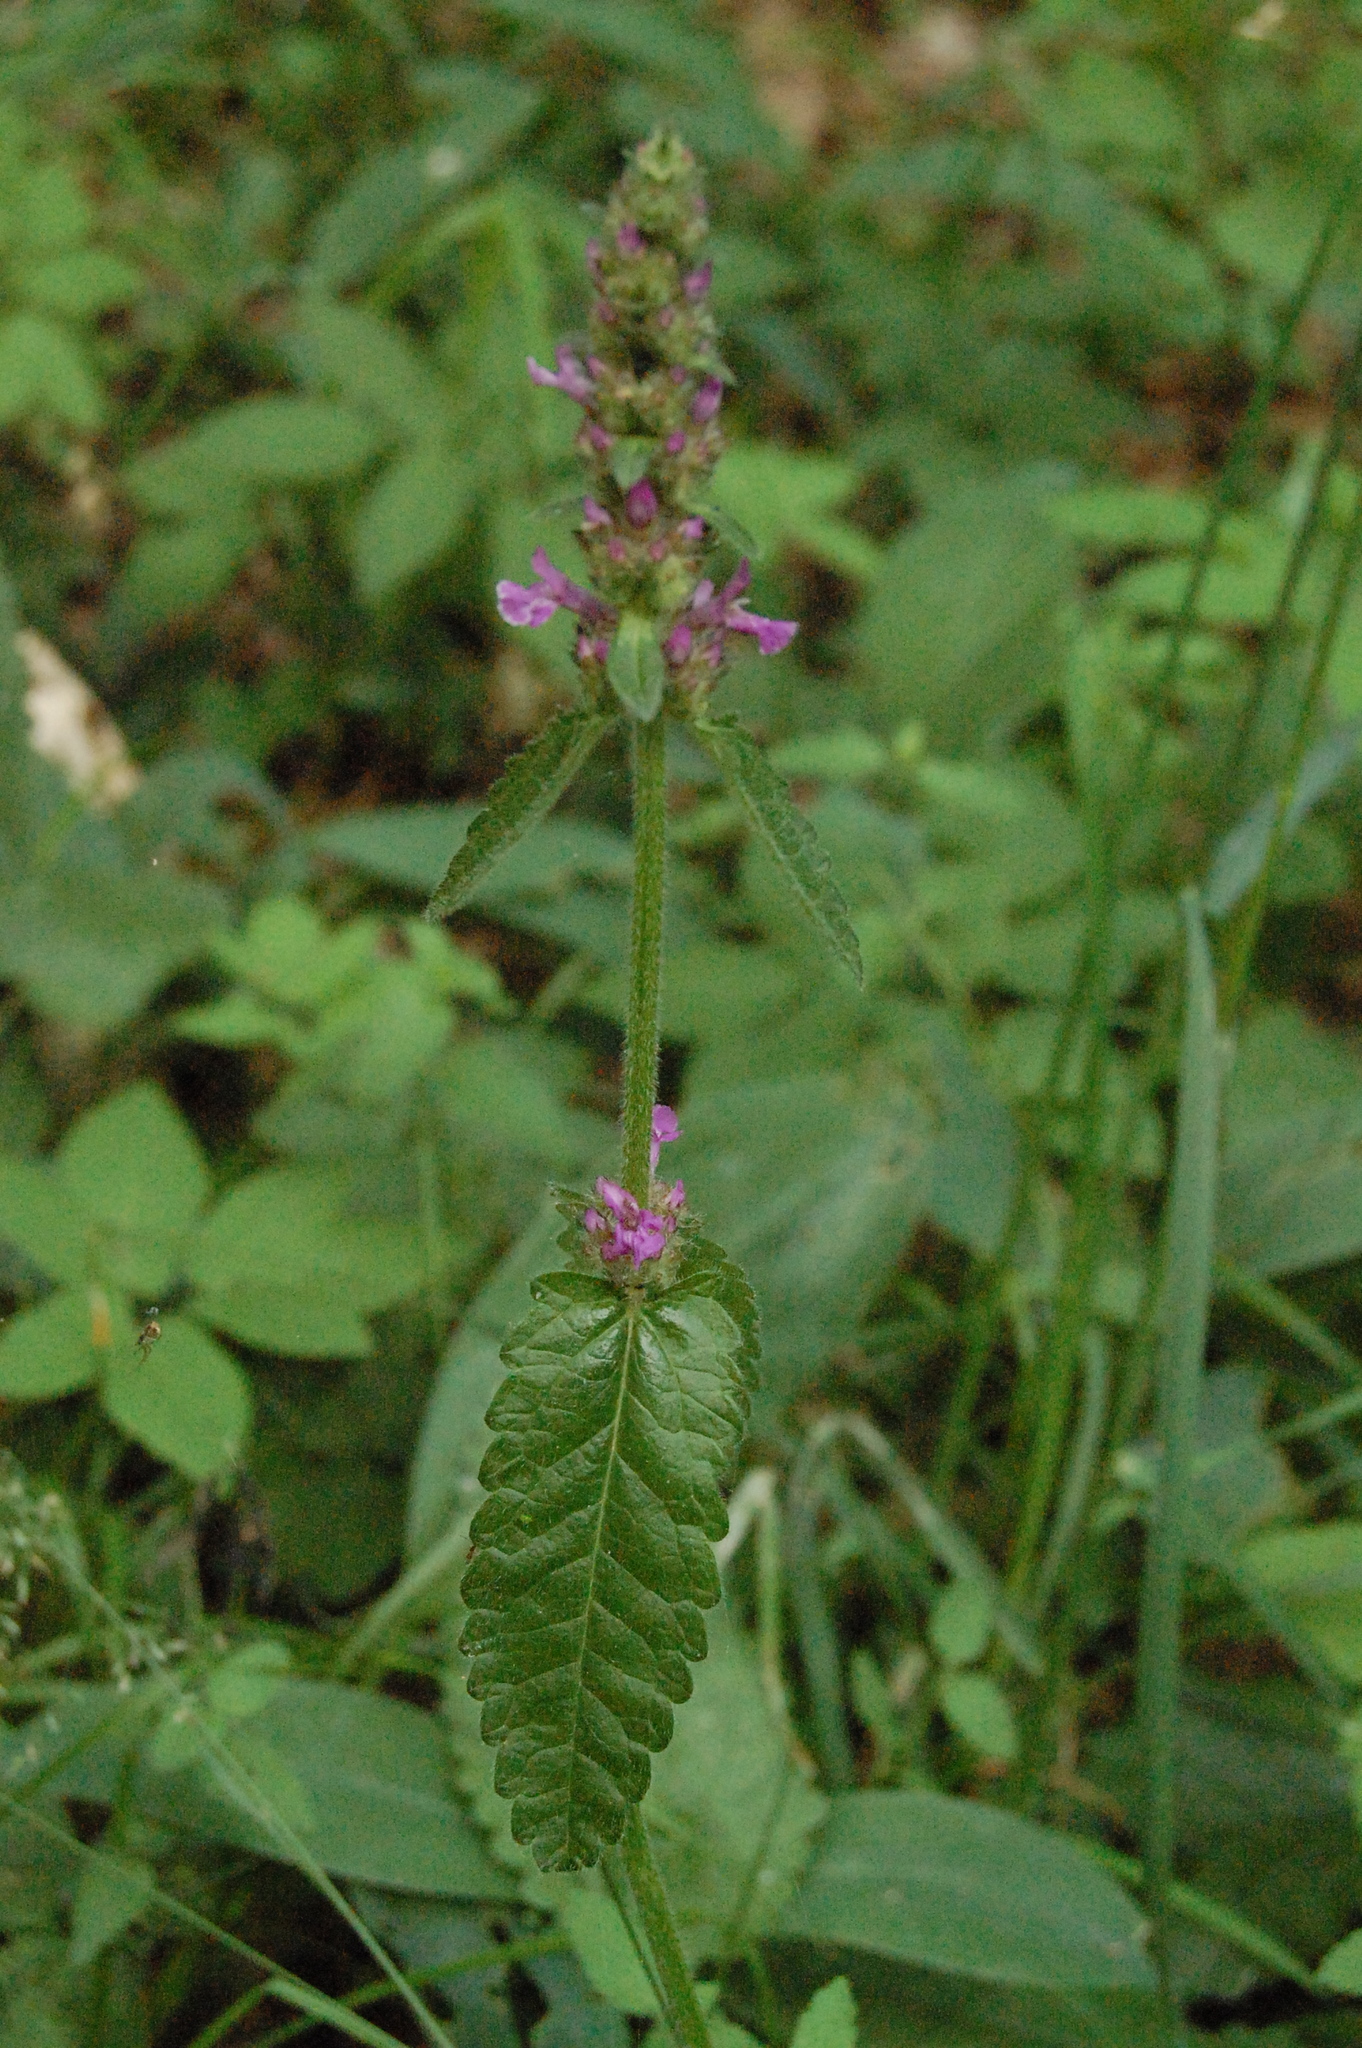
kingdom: Plantae
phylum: Tracheophyta
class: Magnoliopsida
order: Lamiales
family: Lamiaceae
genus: Betonica
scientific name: Betonica officinalis
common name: Bishop's-wort
